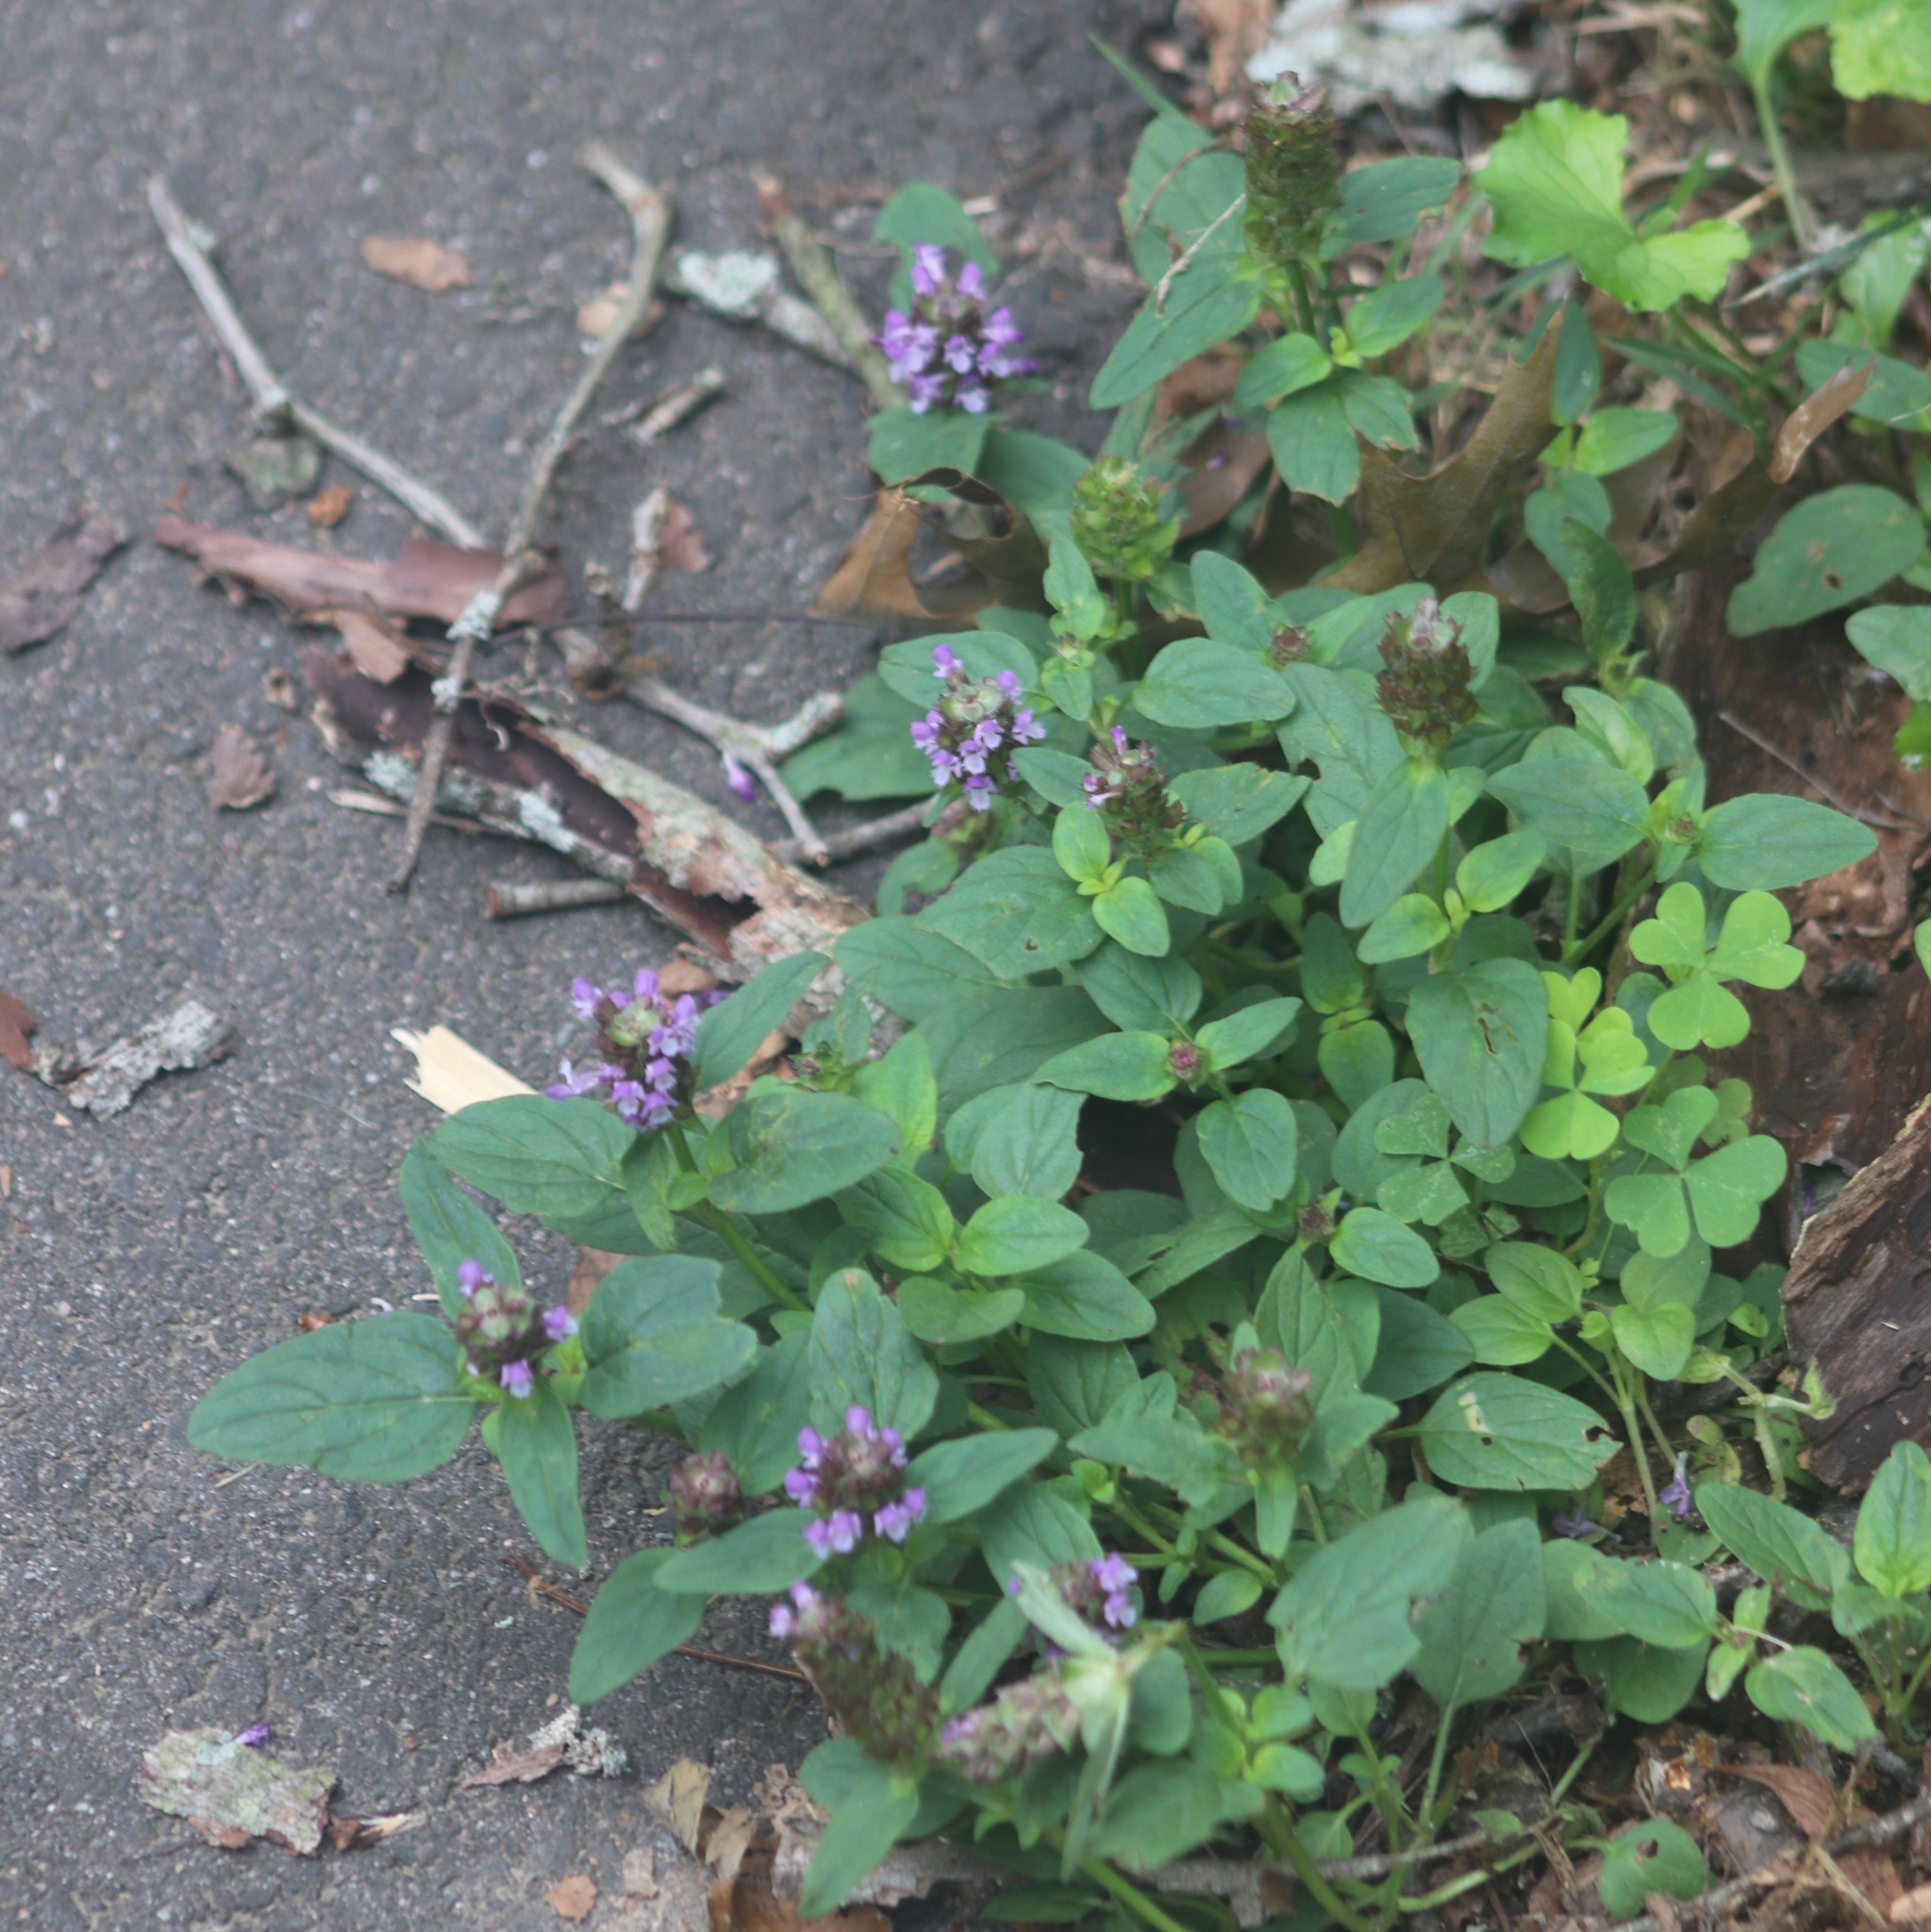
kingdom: Plantae
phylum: Tracheophyta
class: Magnoliopsida
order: Lamiales
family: Lamiaceae
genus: Prunella
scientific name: Prunella vulgaris
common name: Heal-all
